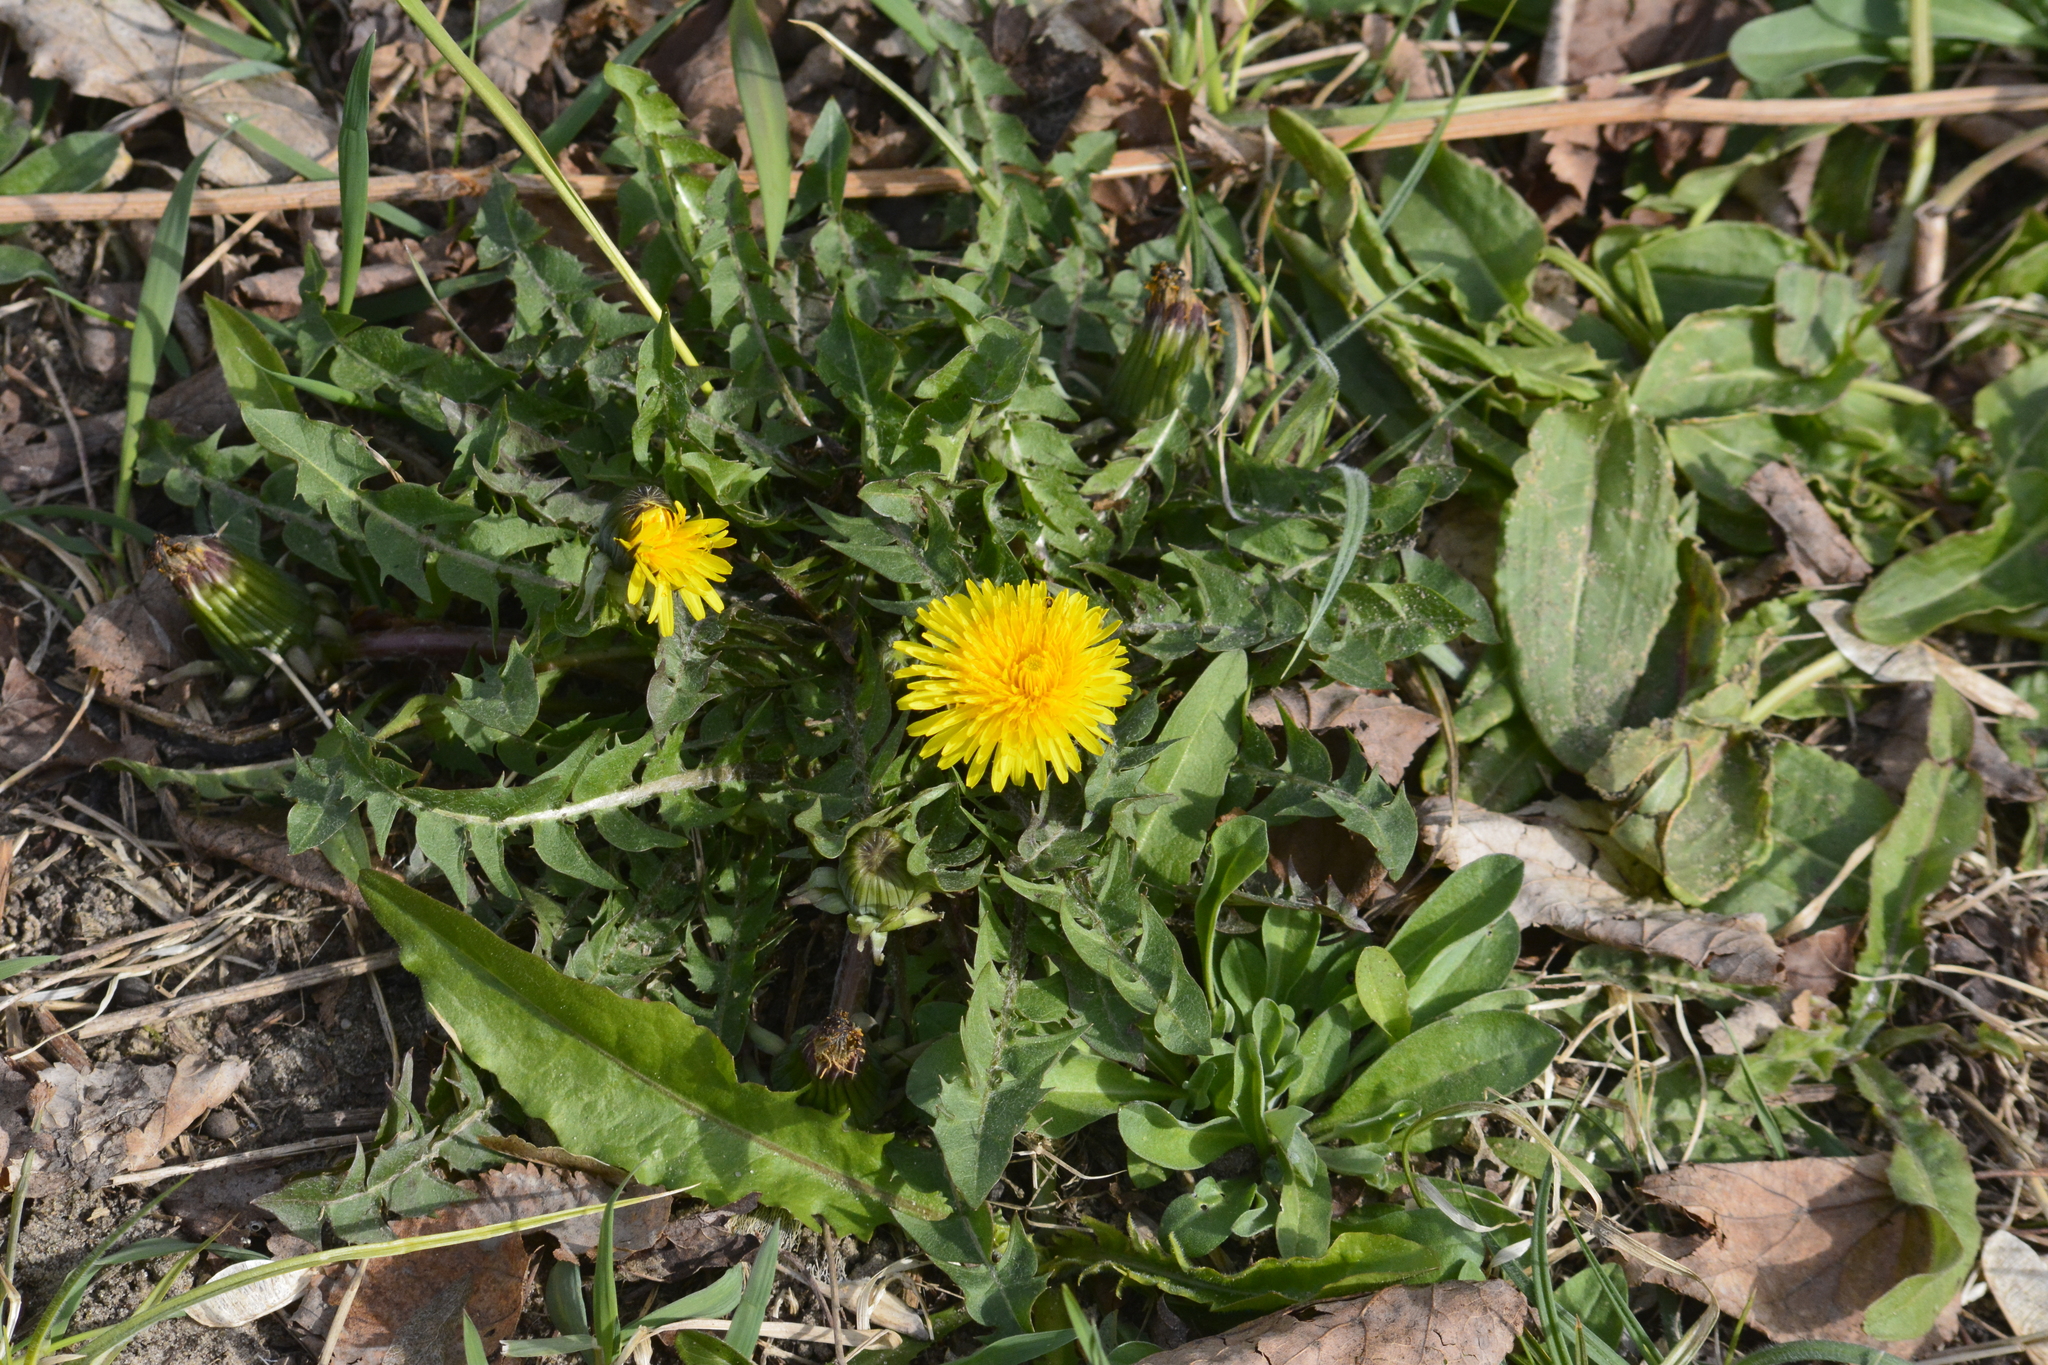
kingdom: Plantae
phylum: Tracheophyta
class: Magnoliopsida
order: Asterales
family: Asteraceae
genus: Taraxacum
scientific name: Taraxacum officinale
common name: Common dandelion
